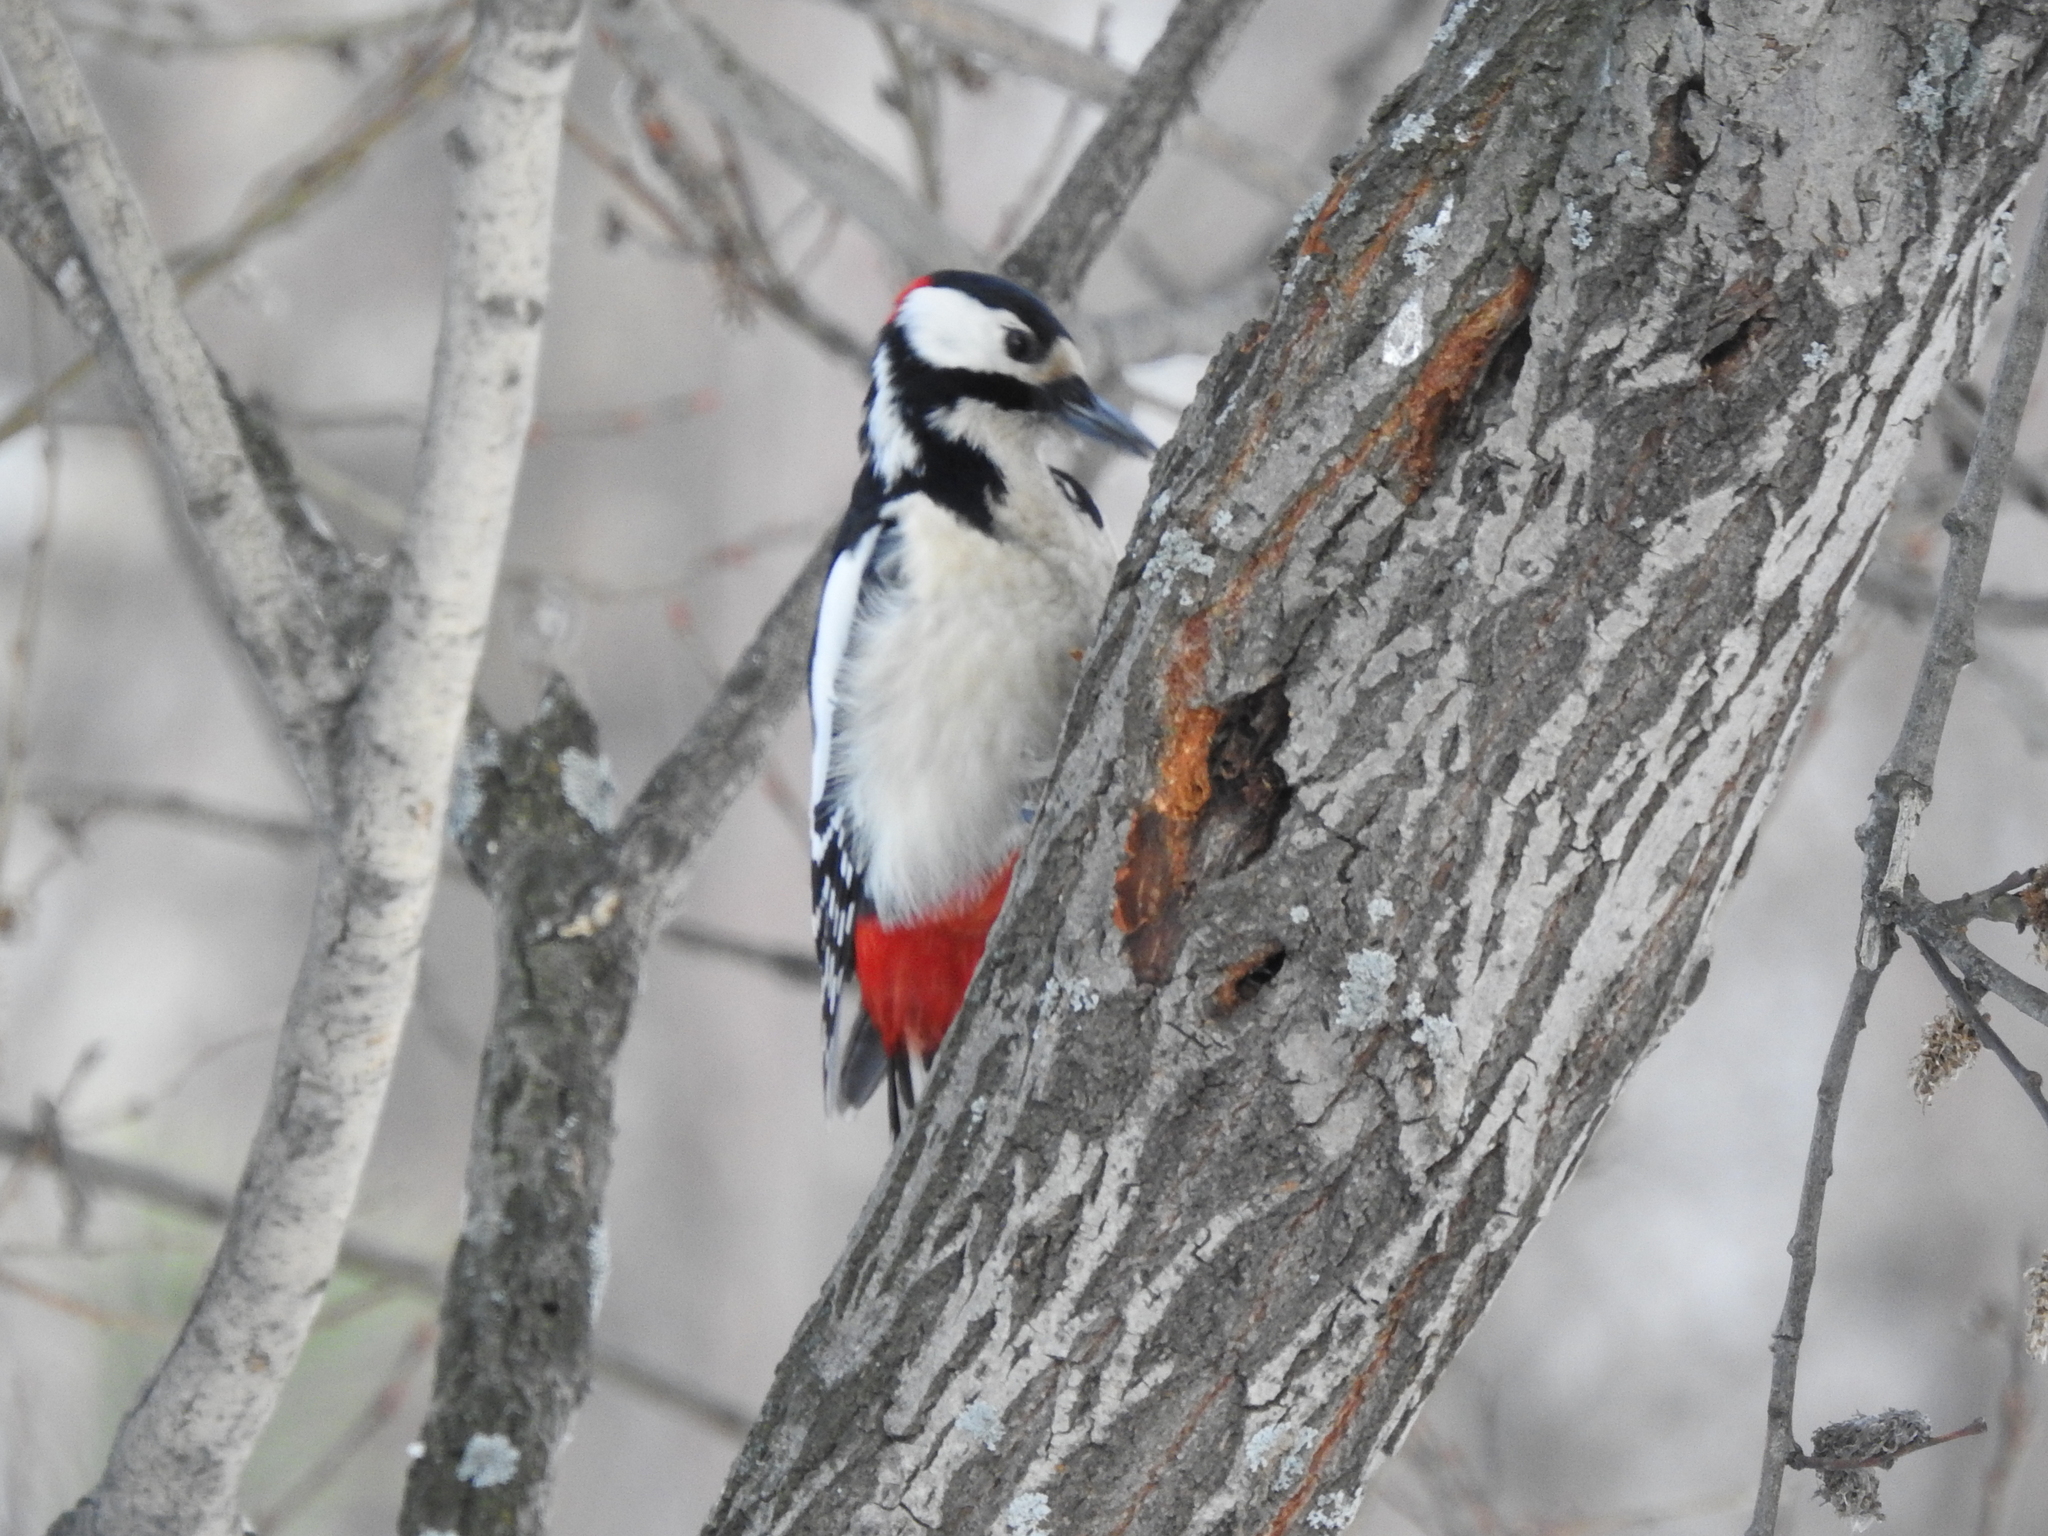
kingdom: Animalia
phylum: Chordata
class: Aves
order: Piciformes
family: Picidae
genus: Dendrocopos
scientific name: Dendrocopos major
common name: Great spotted woodpecker
